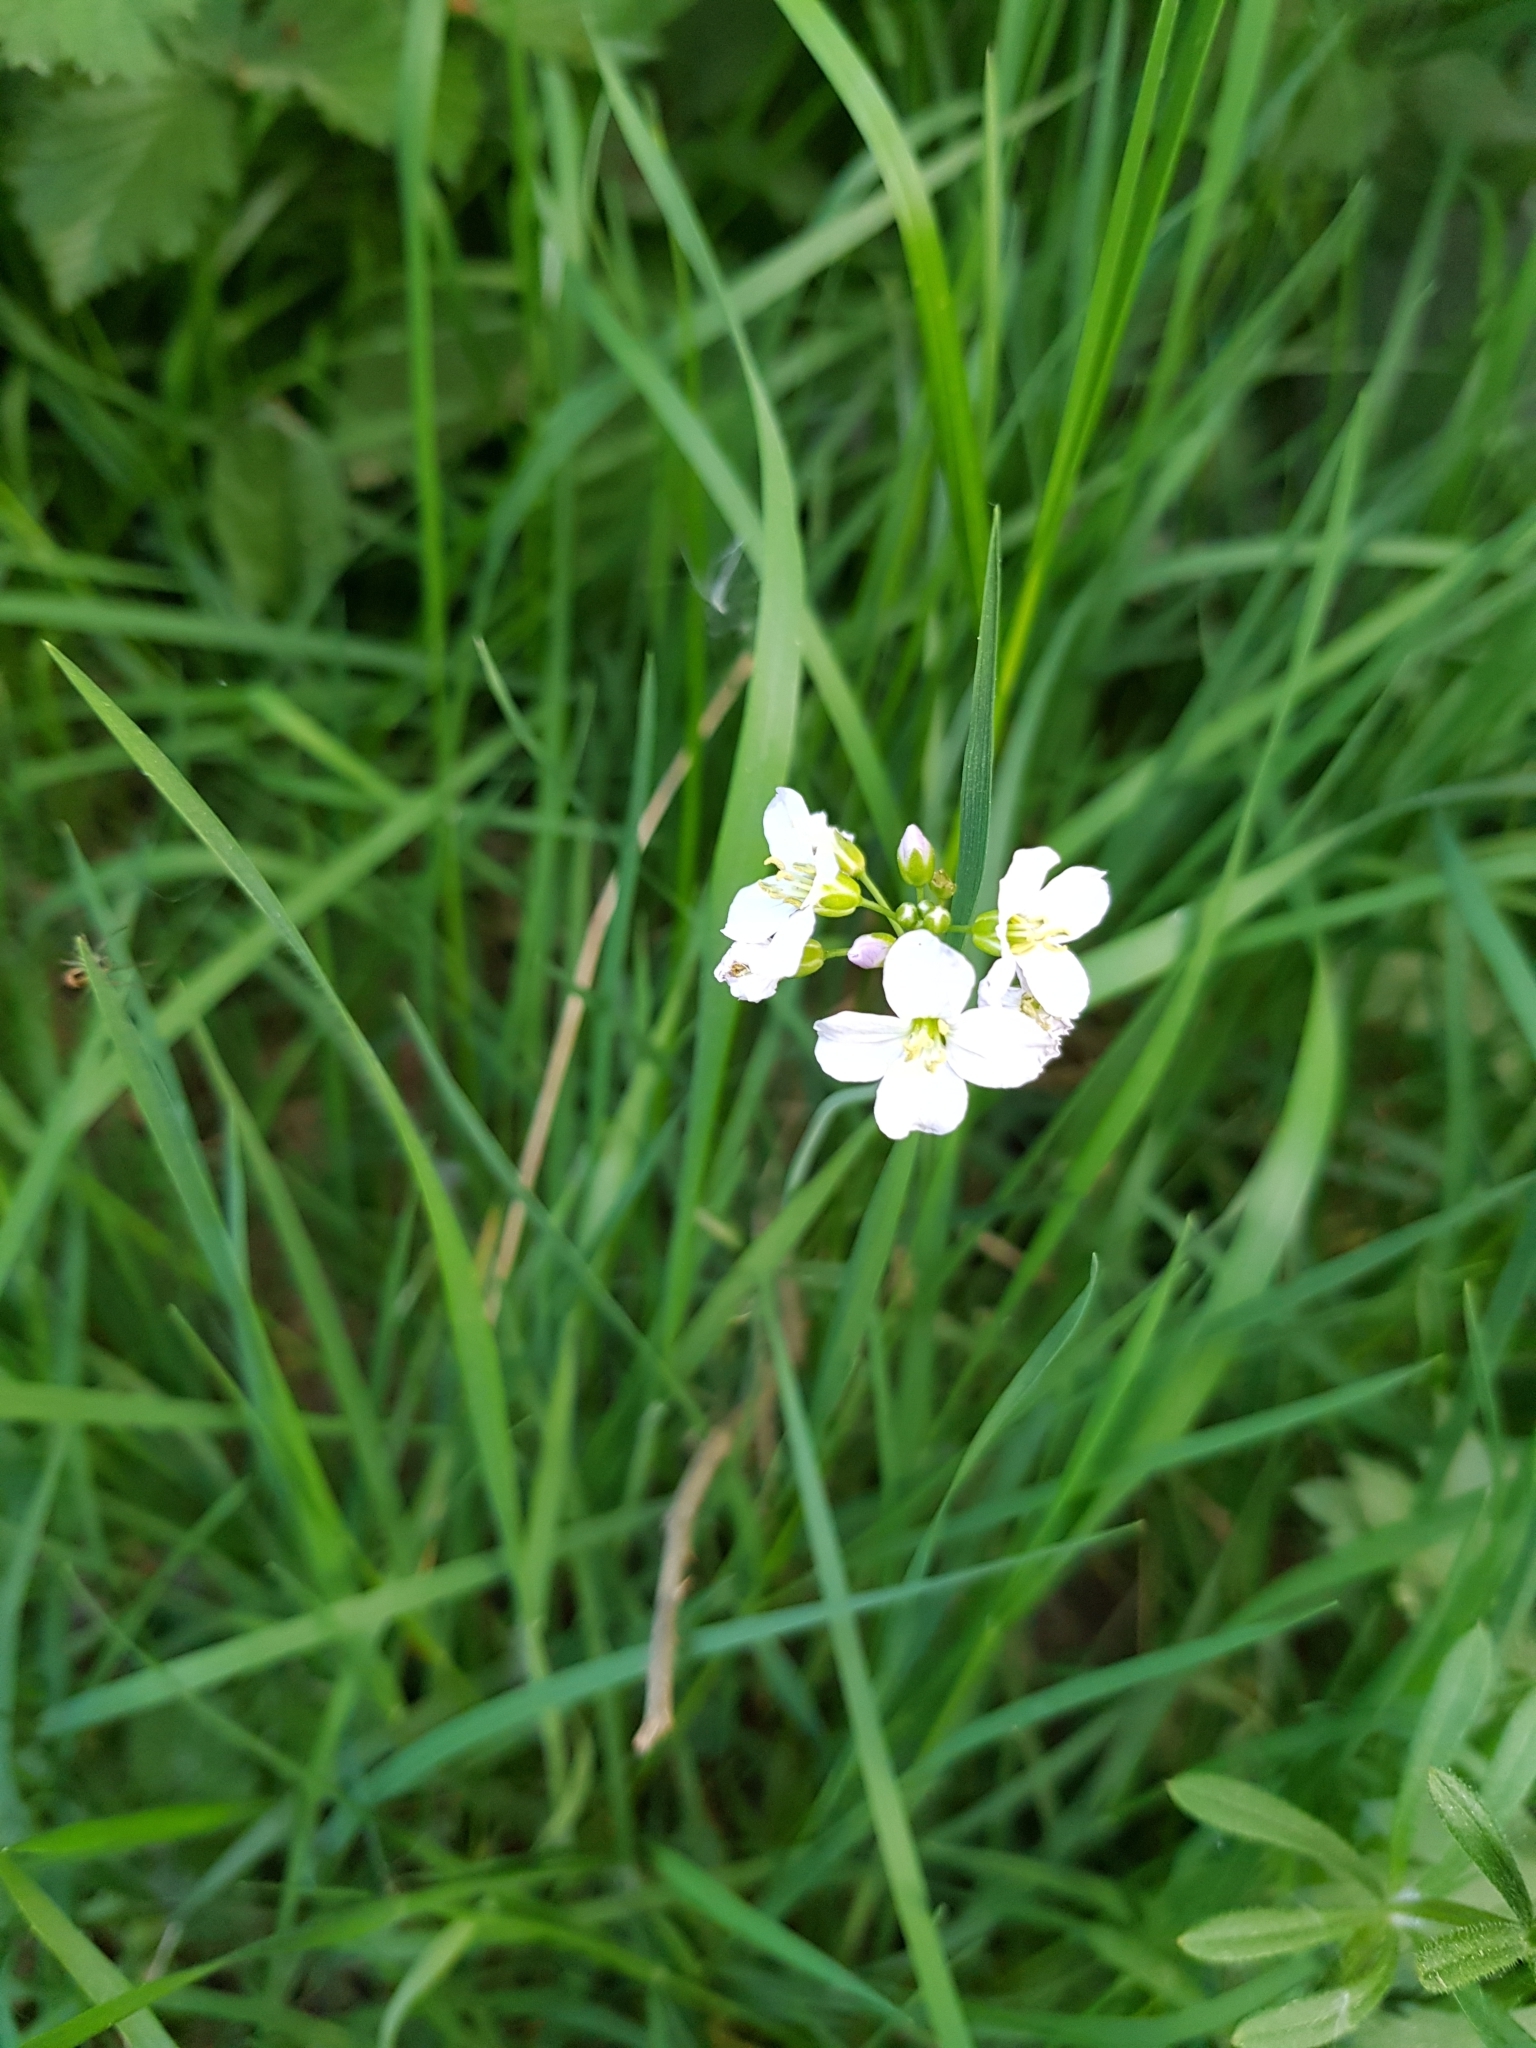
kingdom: Plantae
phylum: Tracheophyta
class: Magnoliopsida
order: Brassicales
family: Brassicaceae
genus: Cardamine
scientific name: Cardamine pratensis
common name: Cuckoo flower
